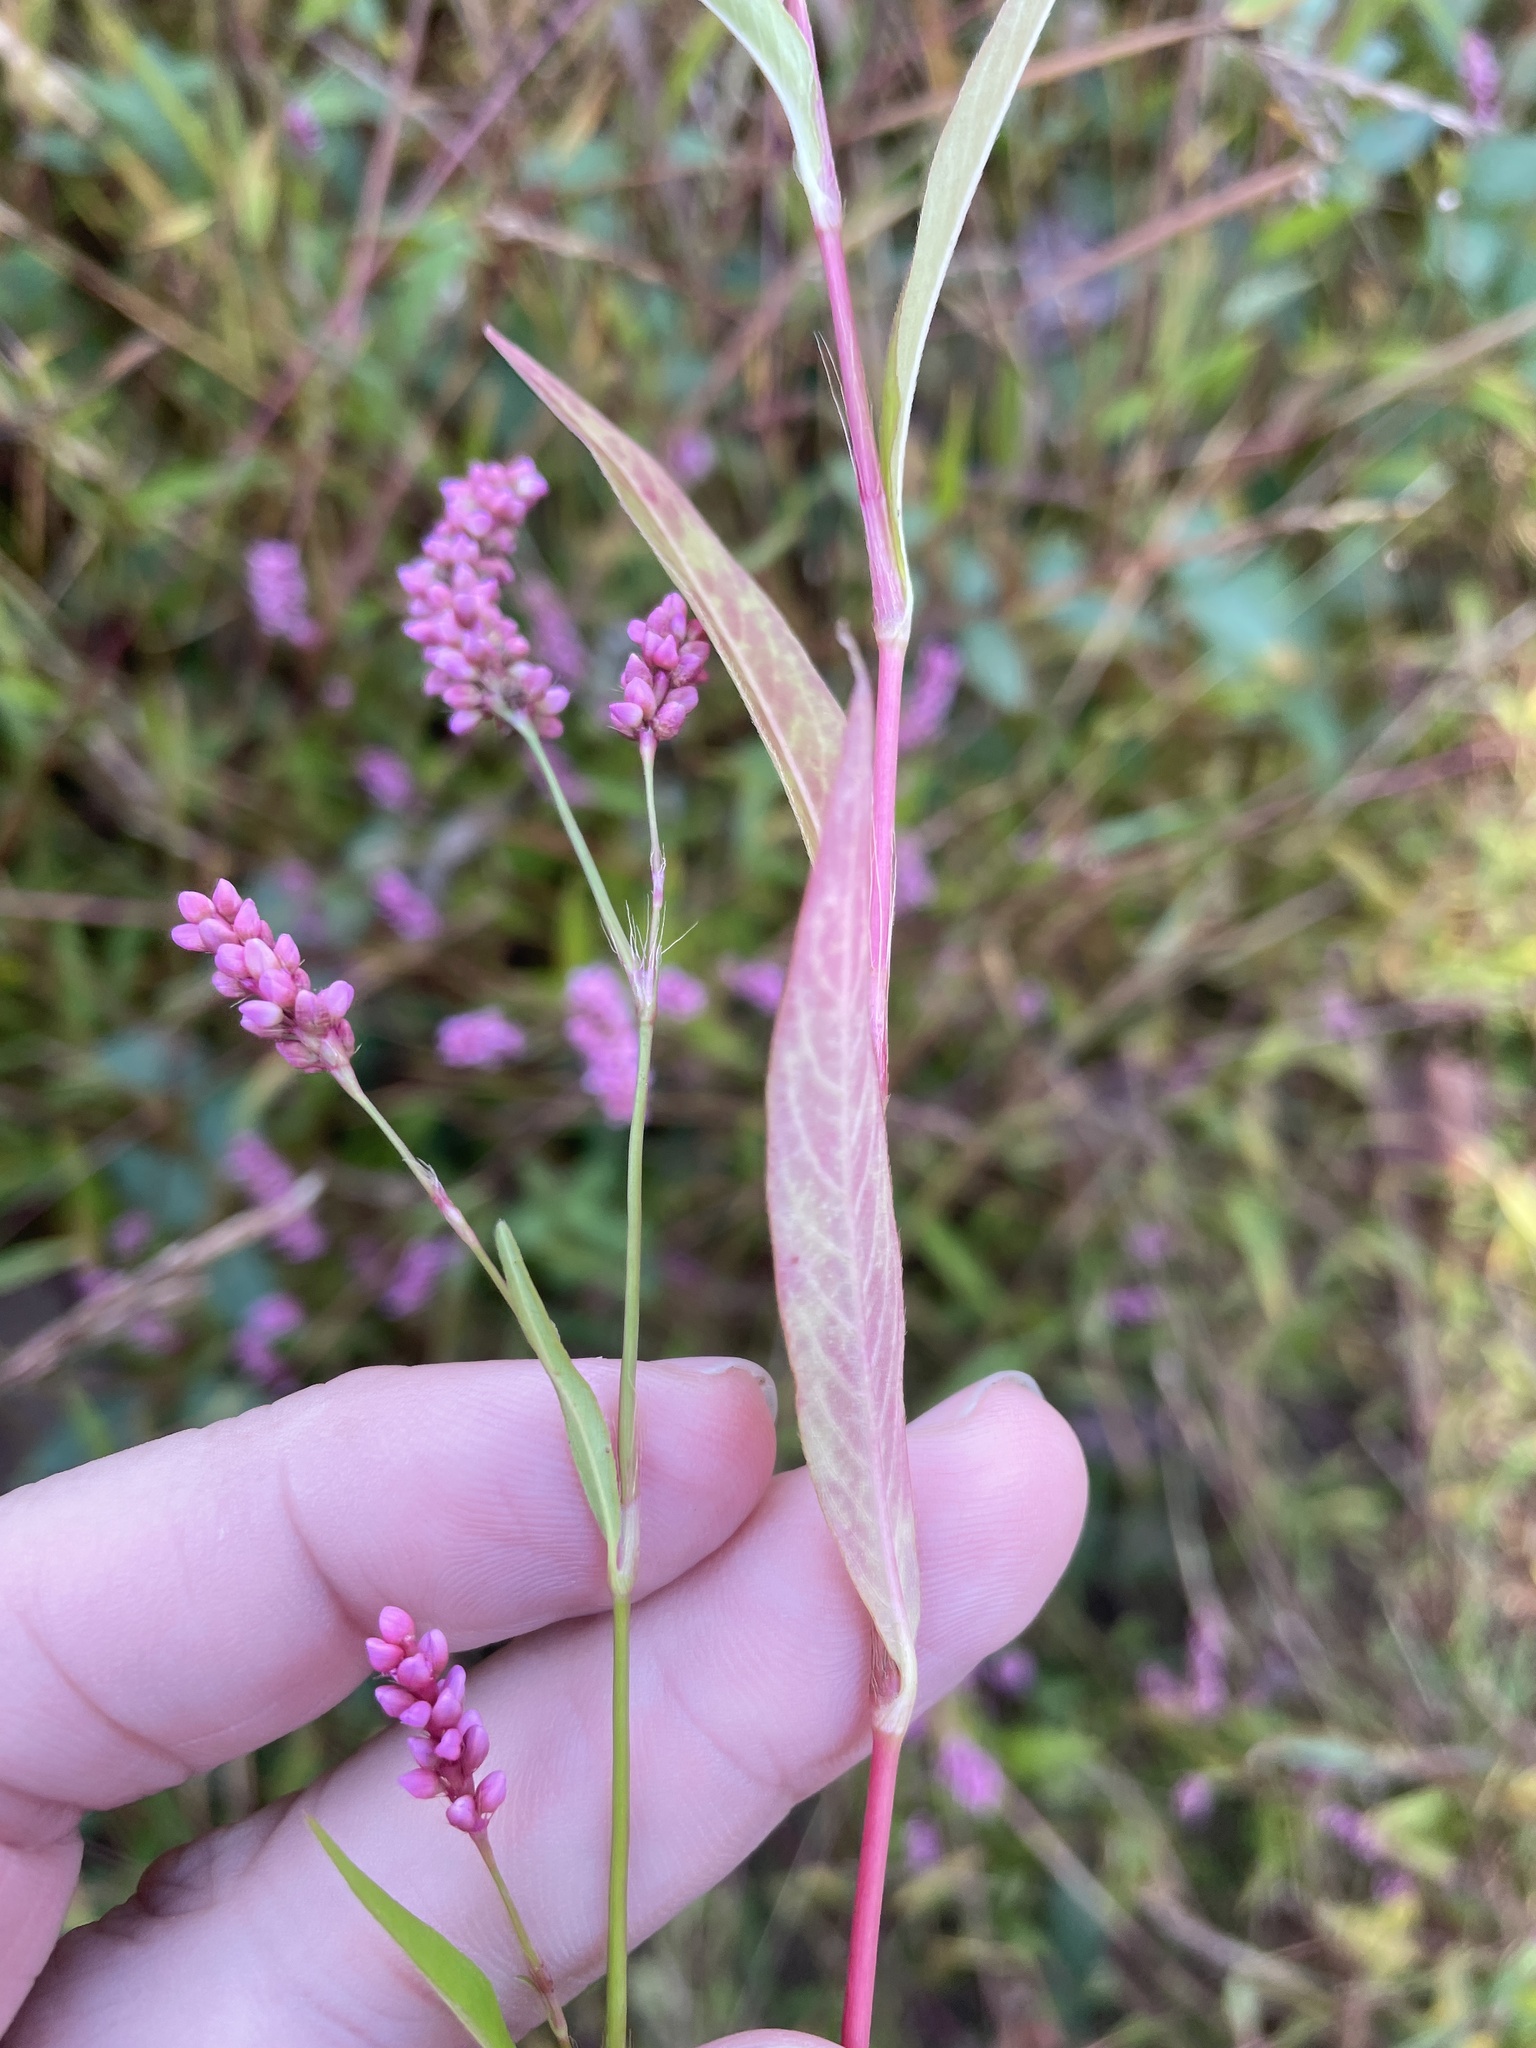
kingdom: Plantae
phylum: Tracheophyta
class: Magnoliopsida
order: Caryophyllales
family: Polygonaceae
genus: Persicaria
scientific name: Persicaria longiseta
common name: Bristly lady's-thumb
